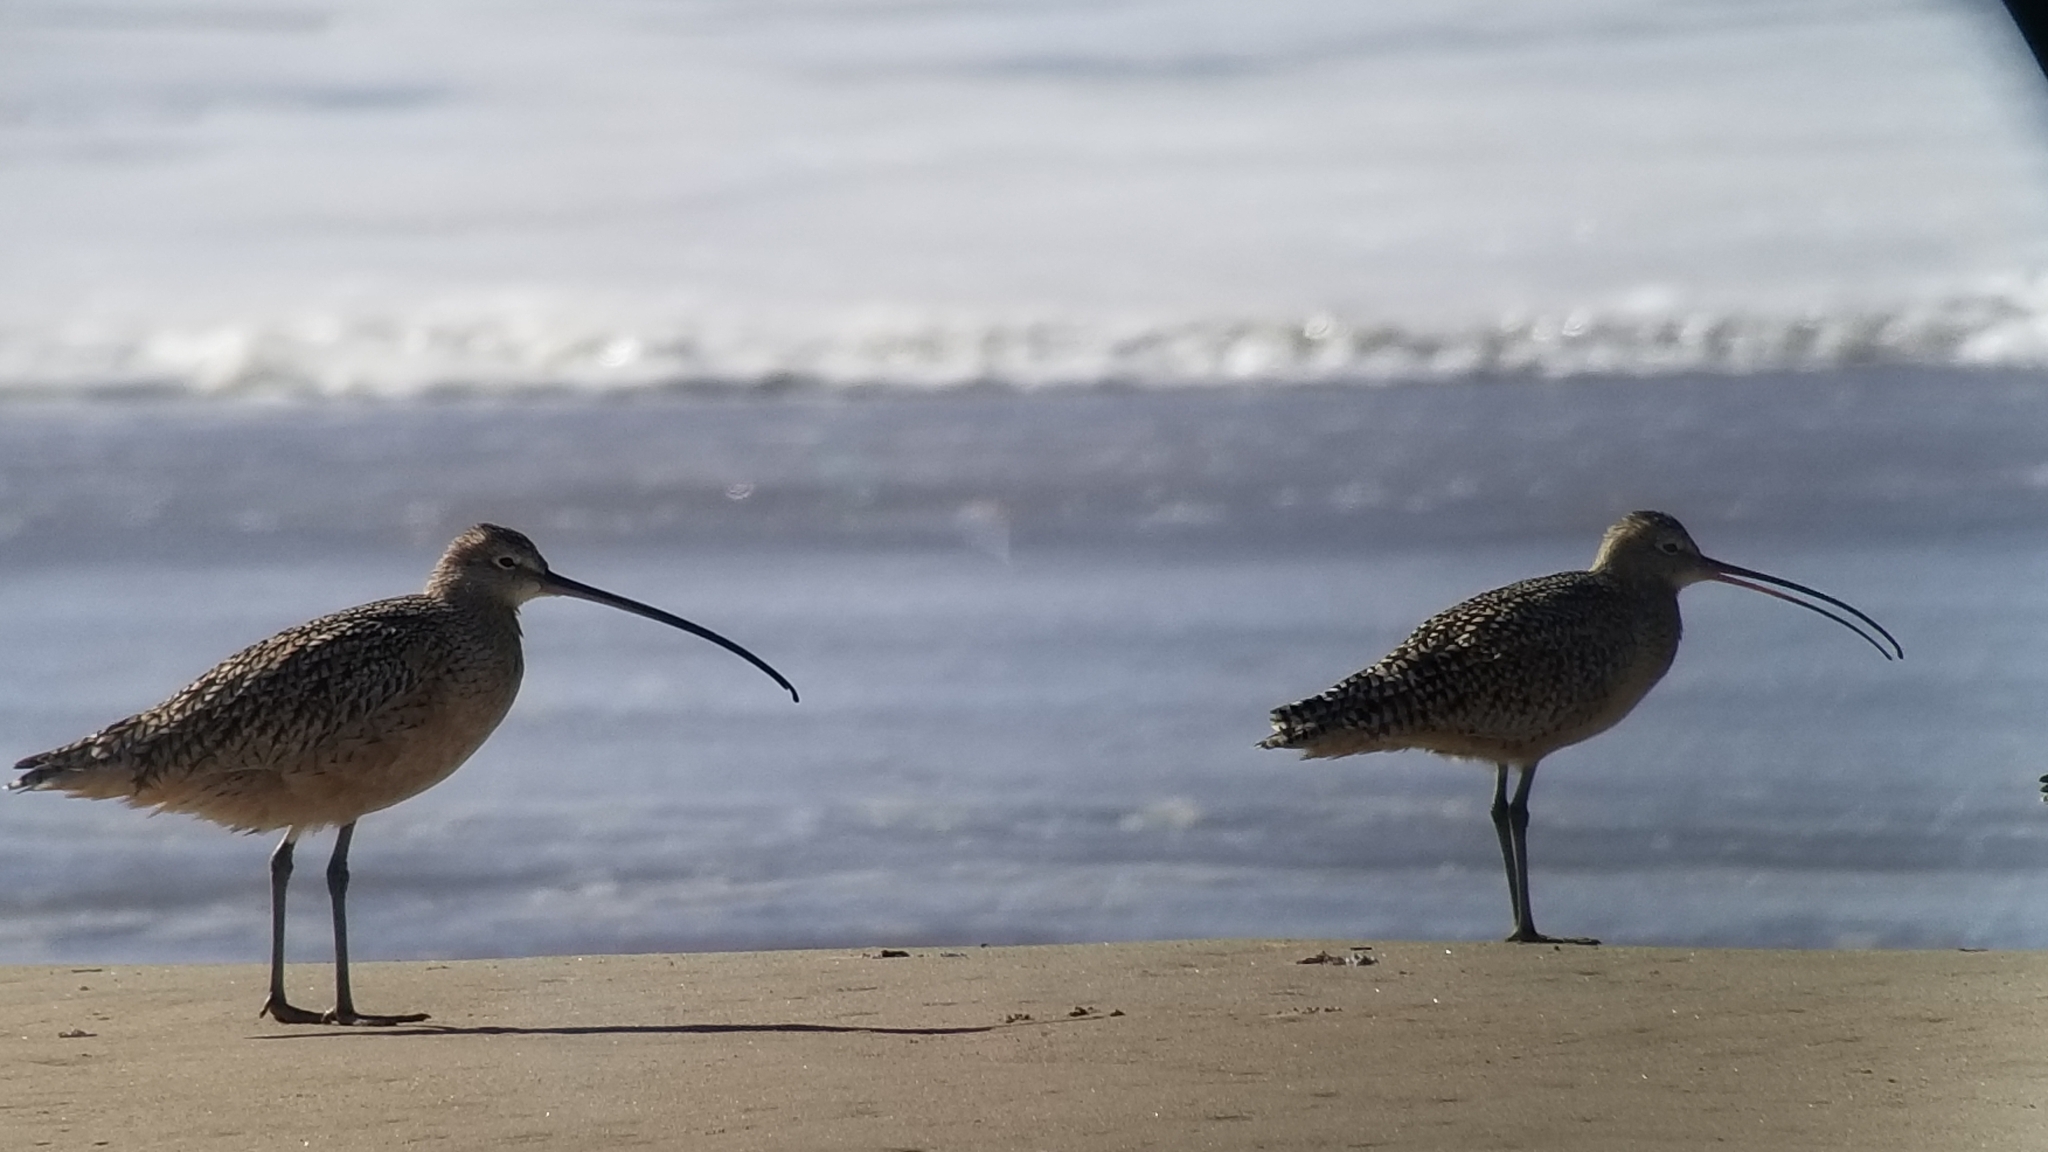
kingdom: Animalia
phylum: Chordata
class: Aves
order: Charadriiformes
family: Scolopacidae
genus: Numenius
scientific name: Numenius americanus
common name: Long-billed curlew
